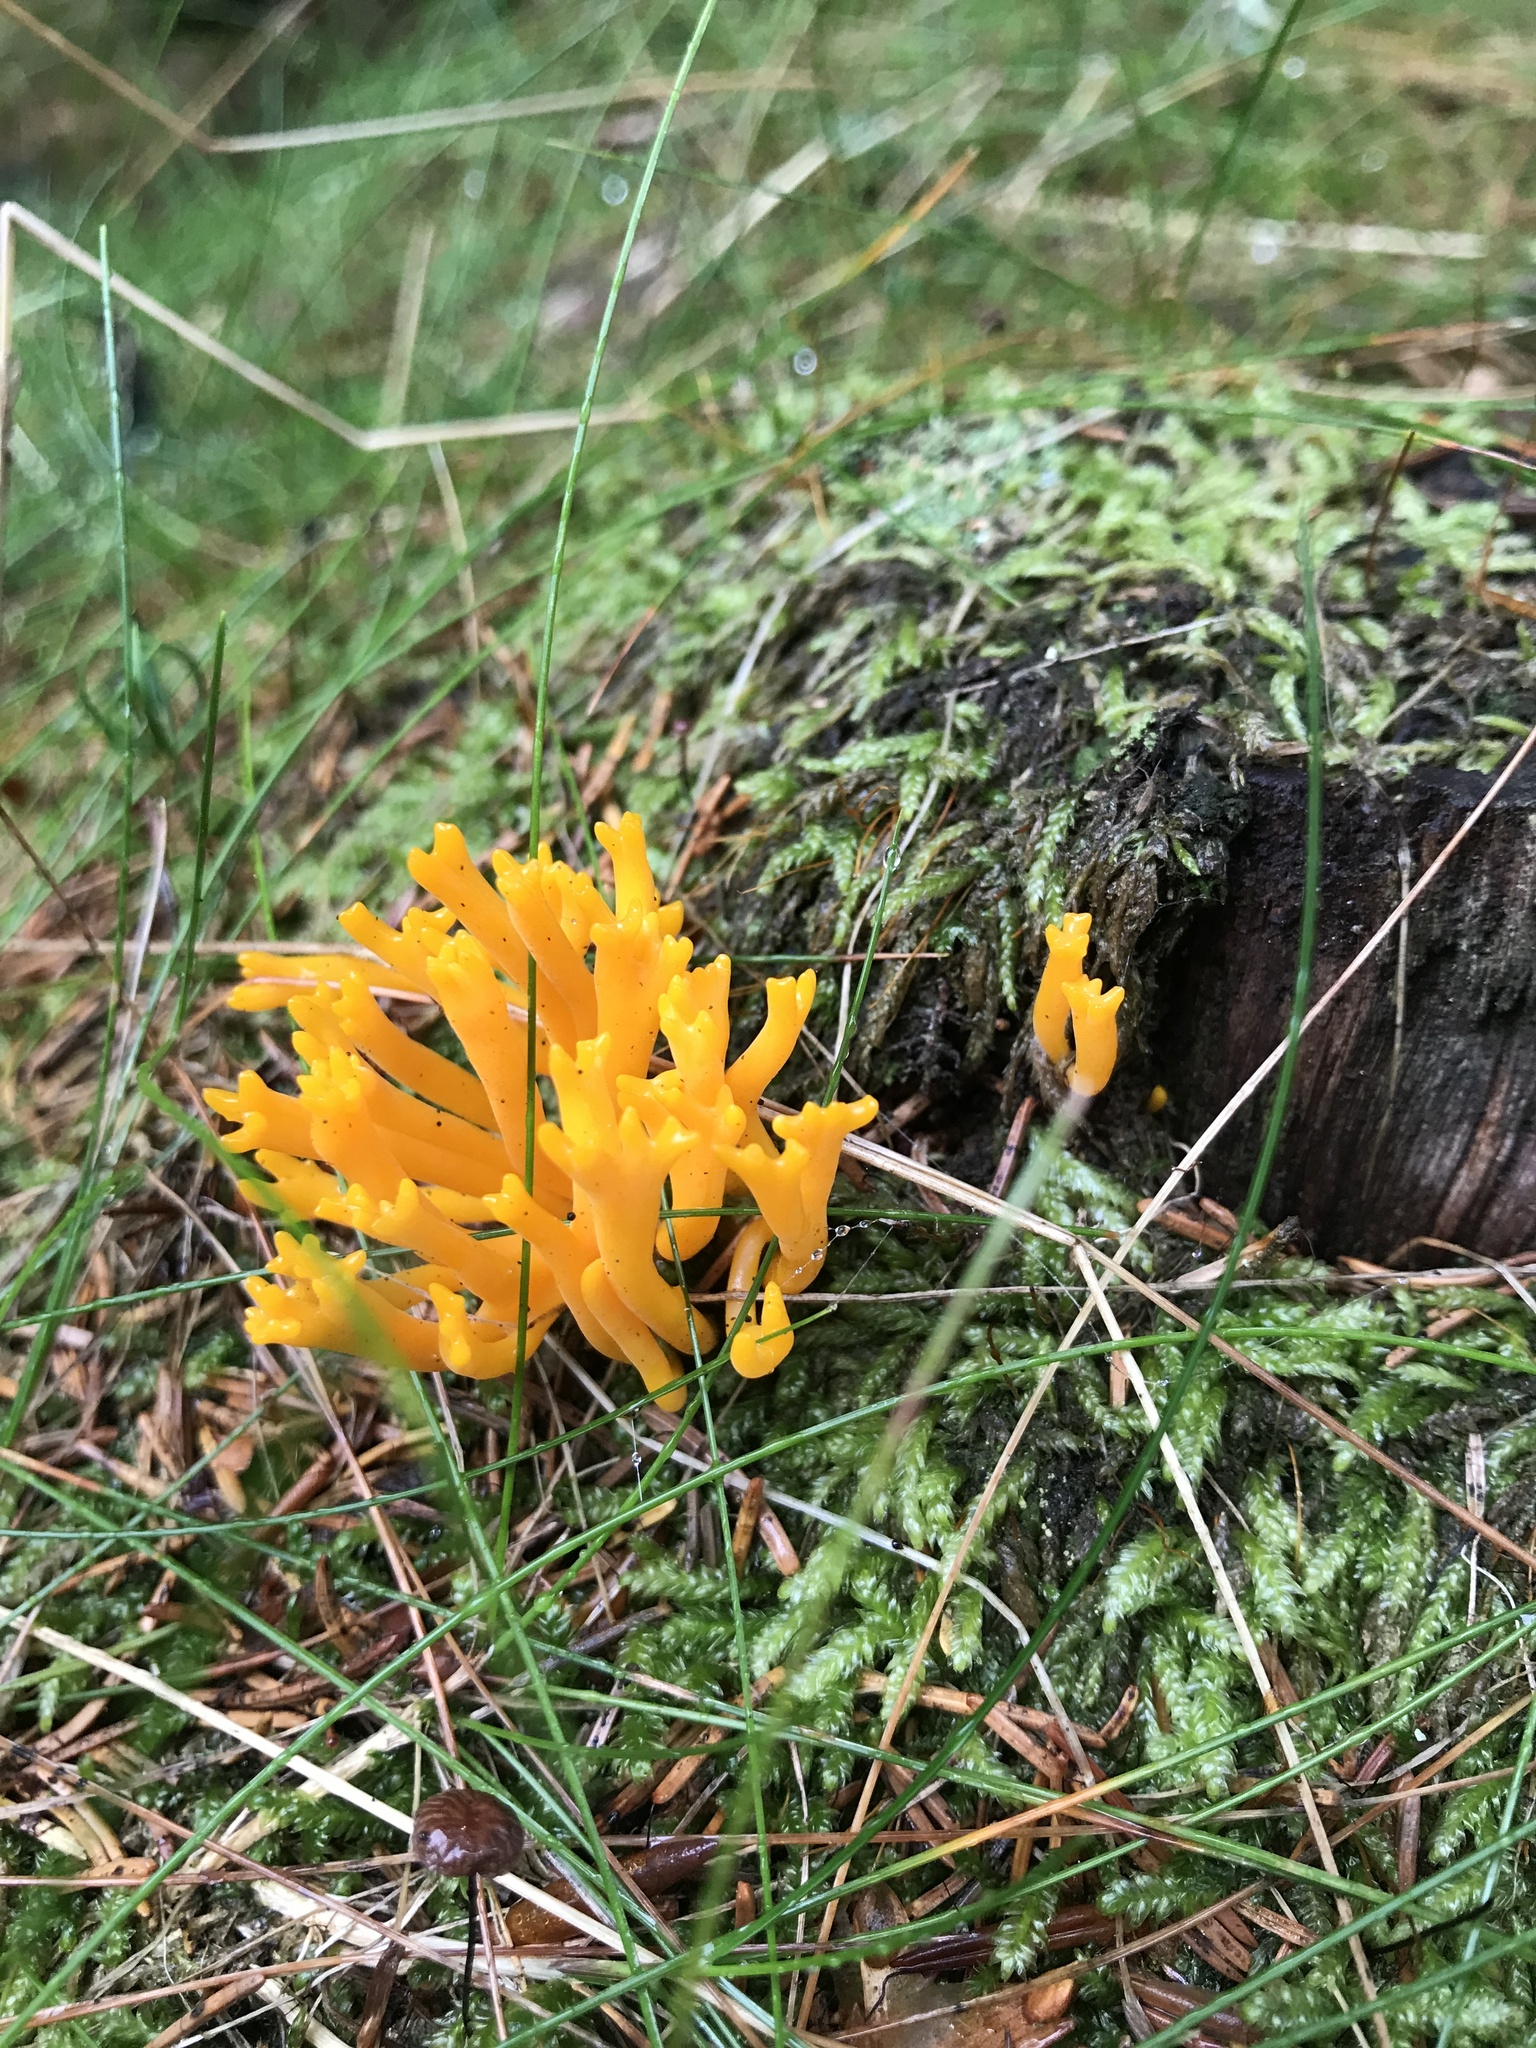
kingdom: Fungi
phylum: Basidiomycota
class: Dacrymycetes
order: Dacrymycetales
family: Dacrymycetaceae
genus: Calocera
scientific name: Calocera viscosa
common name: Yellow stagshorn
